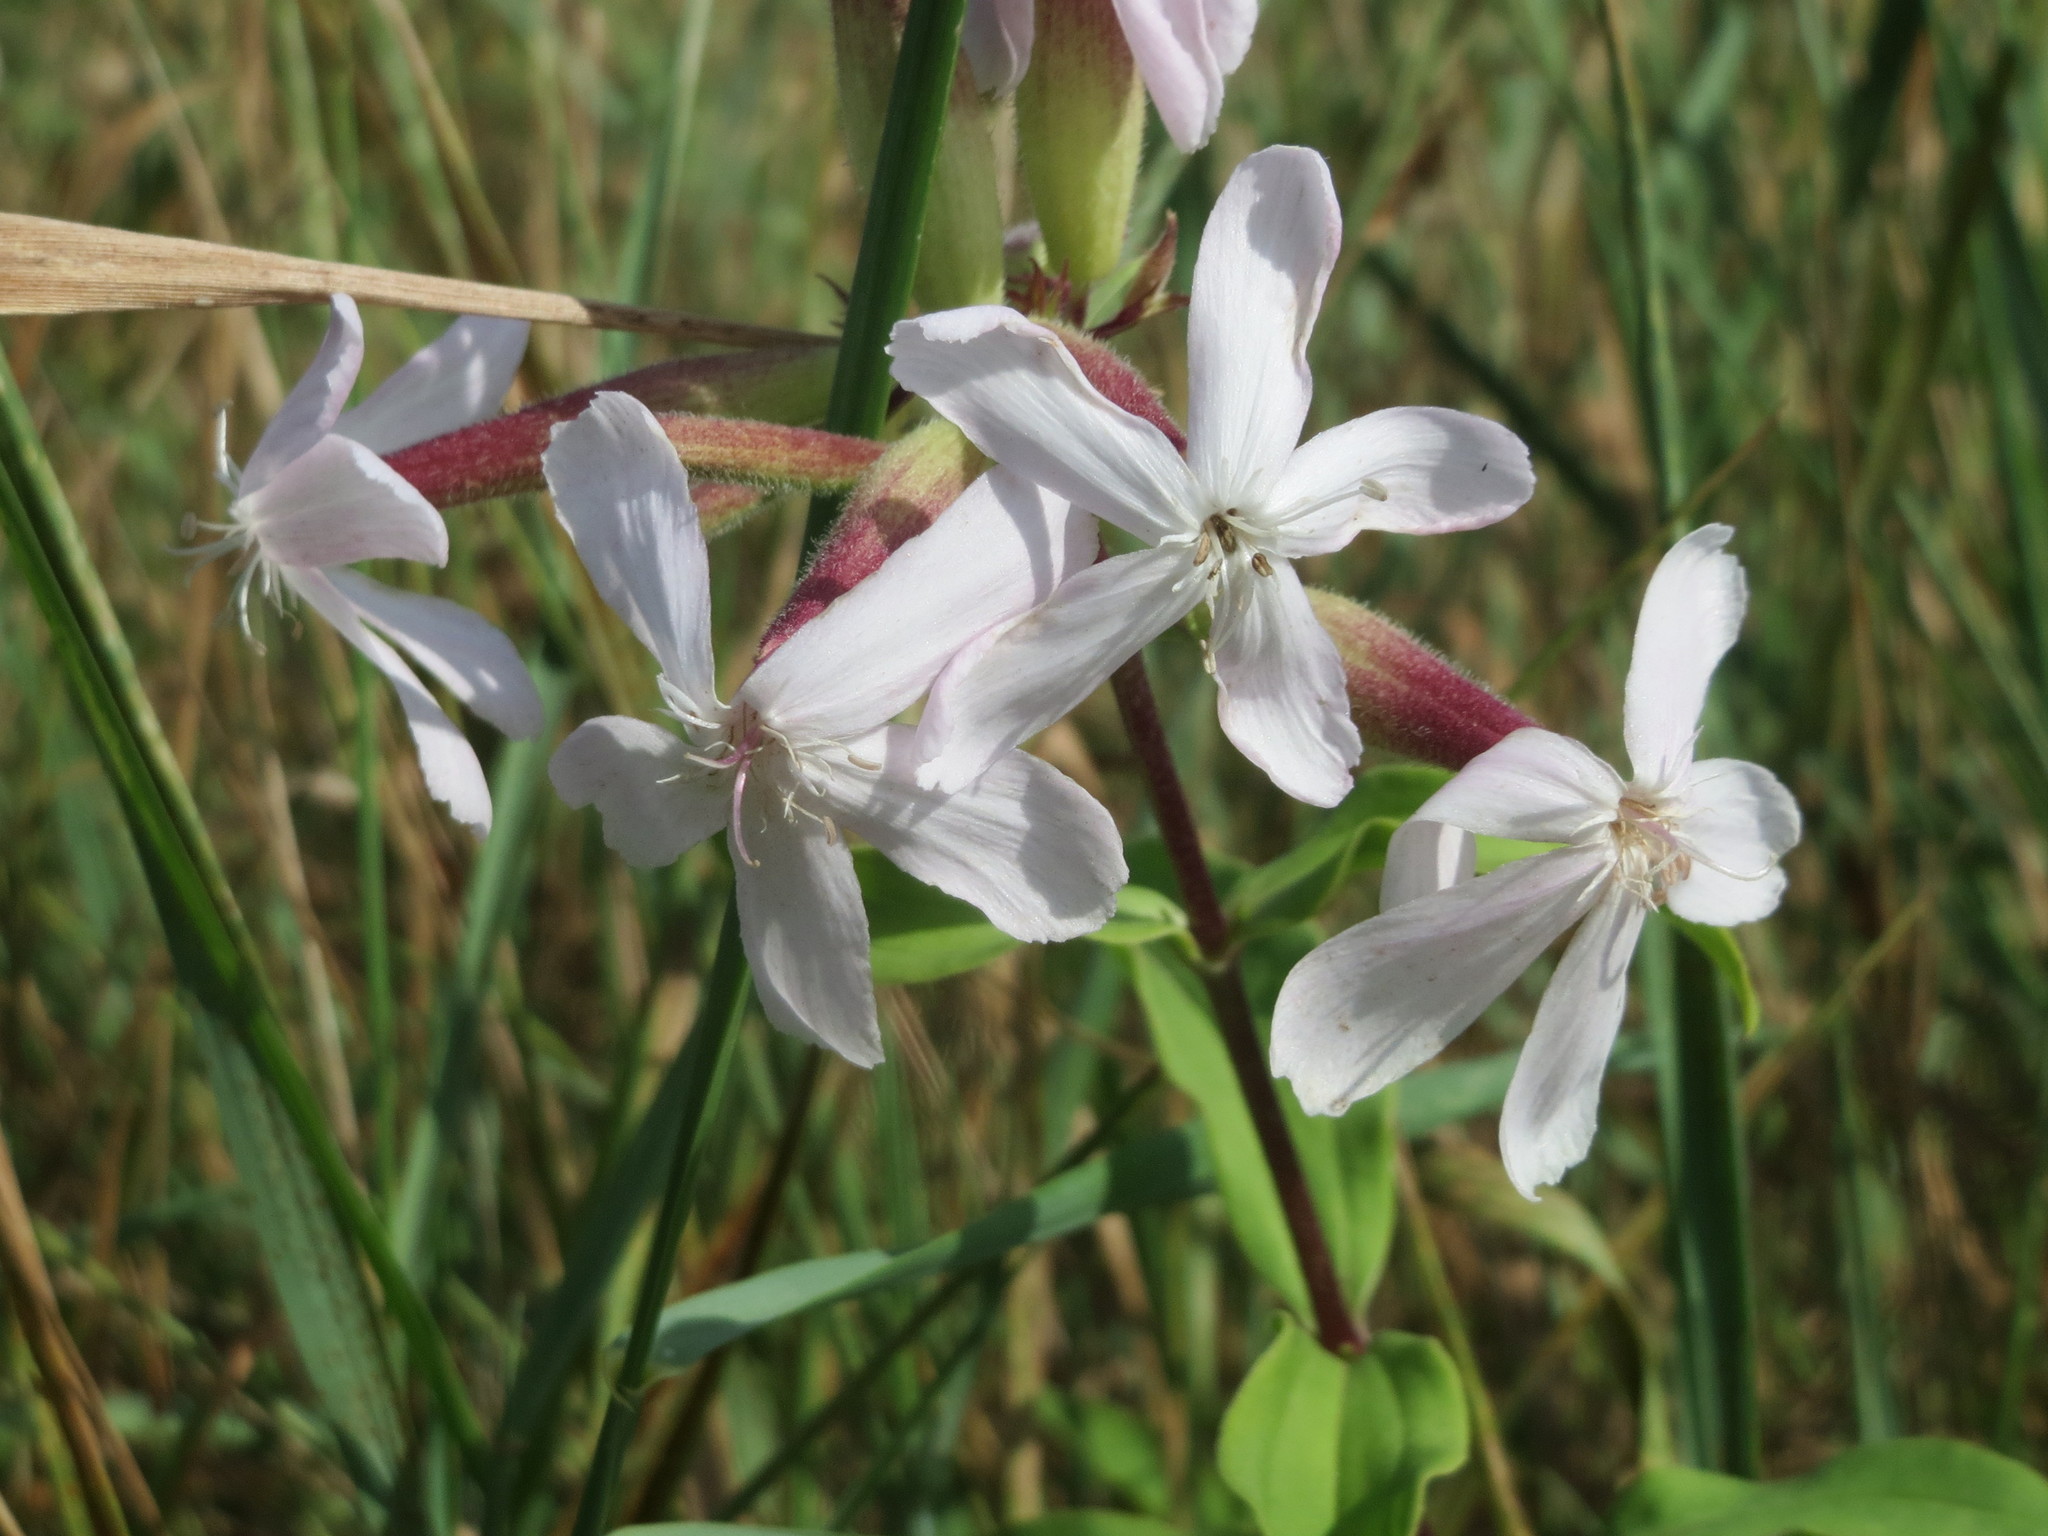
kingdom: Plantae
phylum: Tracheophyta
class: Magnoliopsida
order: Caryophyllales
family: Caryophyllaceae
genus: Saponaria
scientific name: Saponaria officinalis
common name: Soapwort
